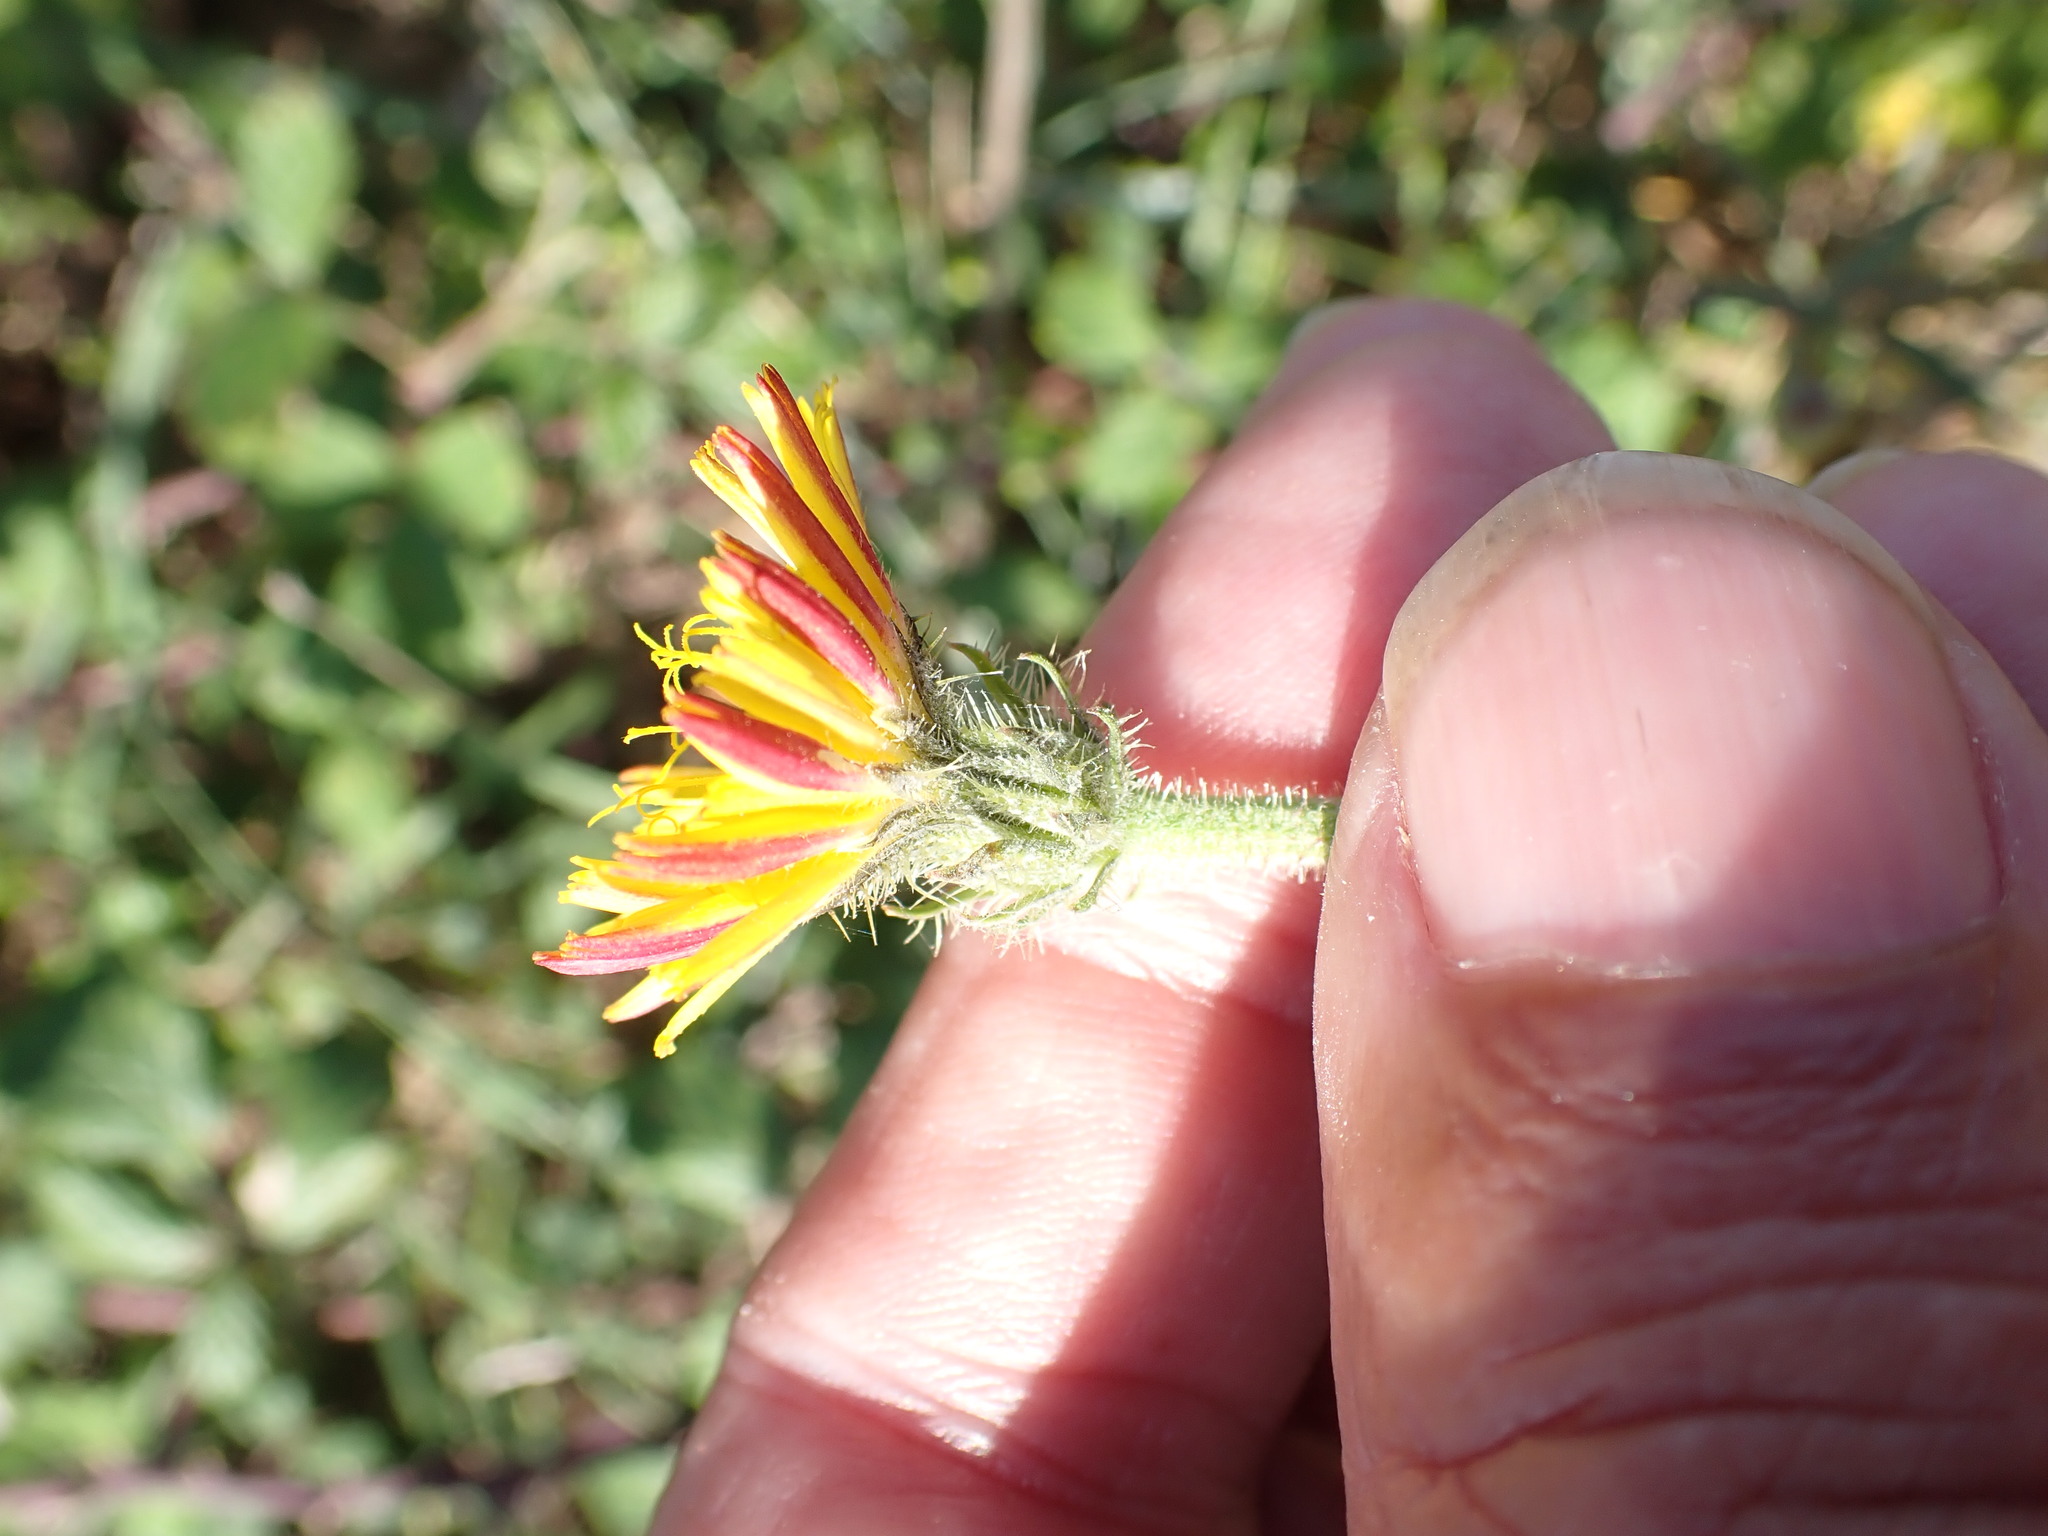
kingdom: Plantae
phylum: Tracheophyta
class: Magnoliopsida
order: Asterales
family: Asteraceae
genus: Picris
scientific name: Picris hieracioides
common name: Hawkweed oxtongue
